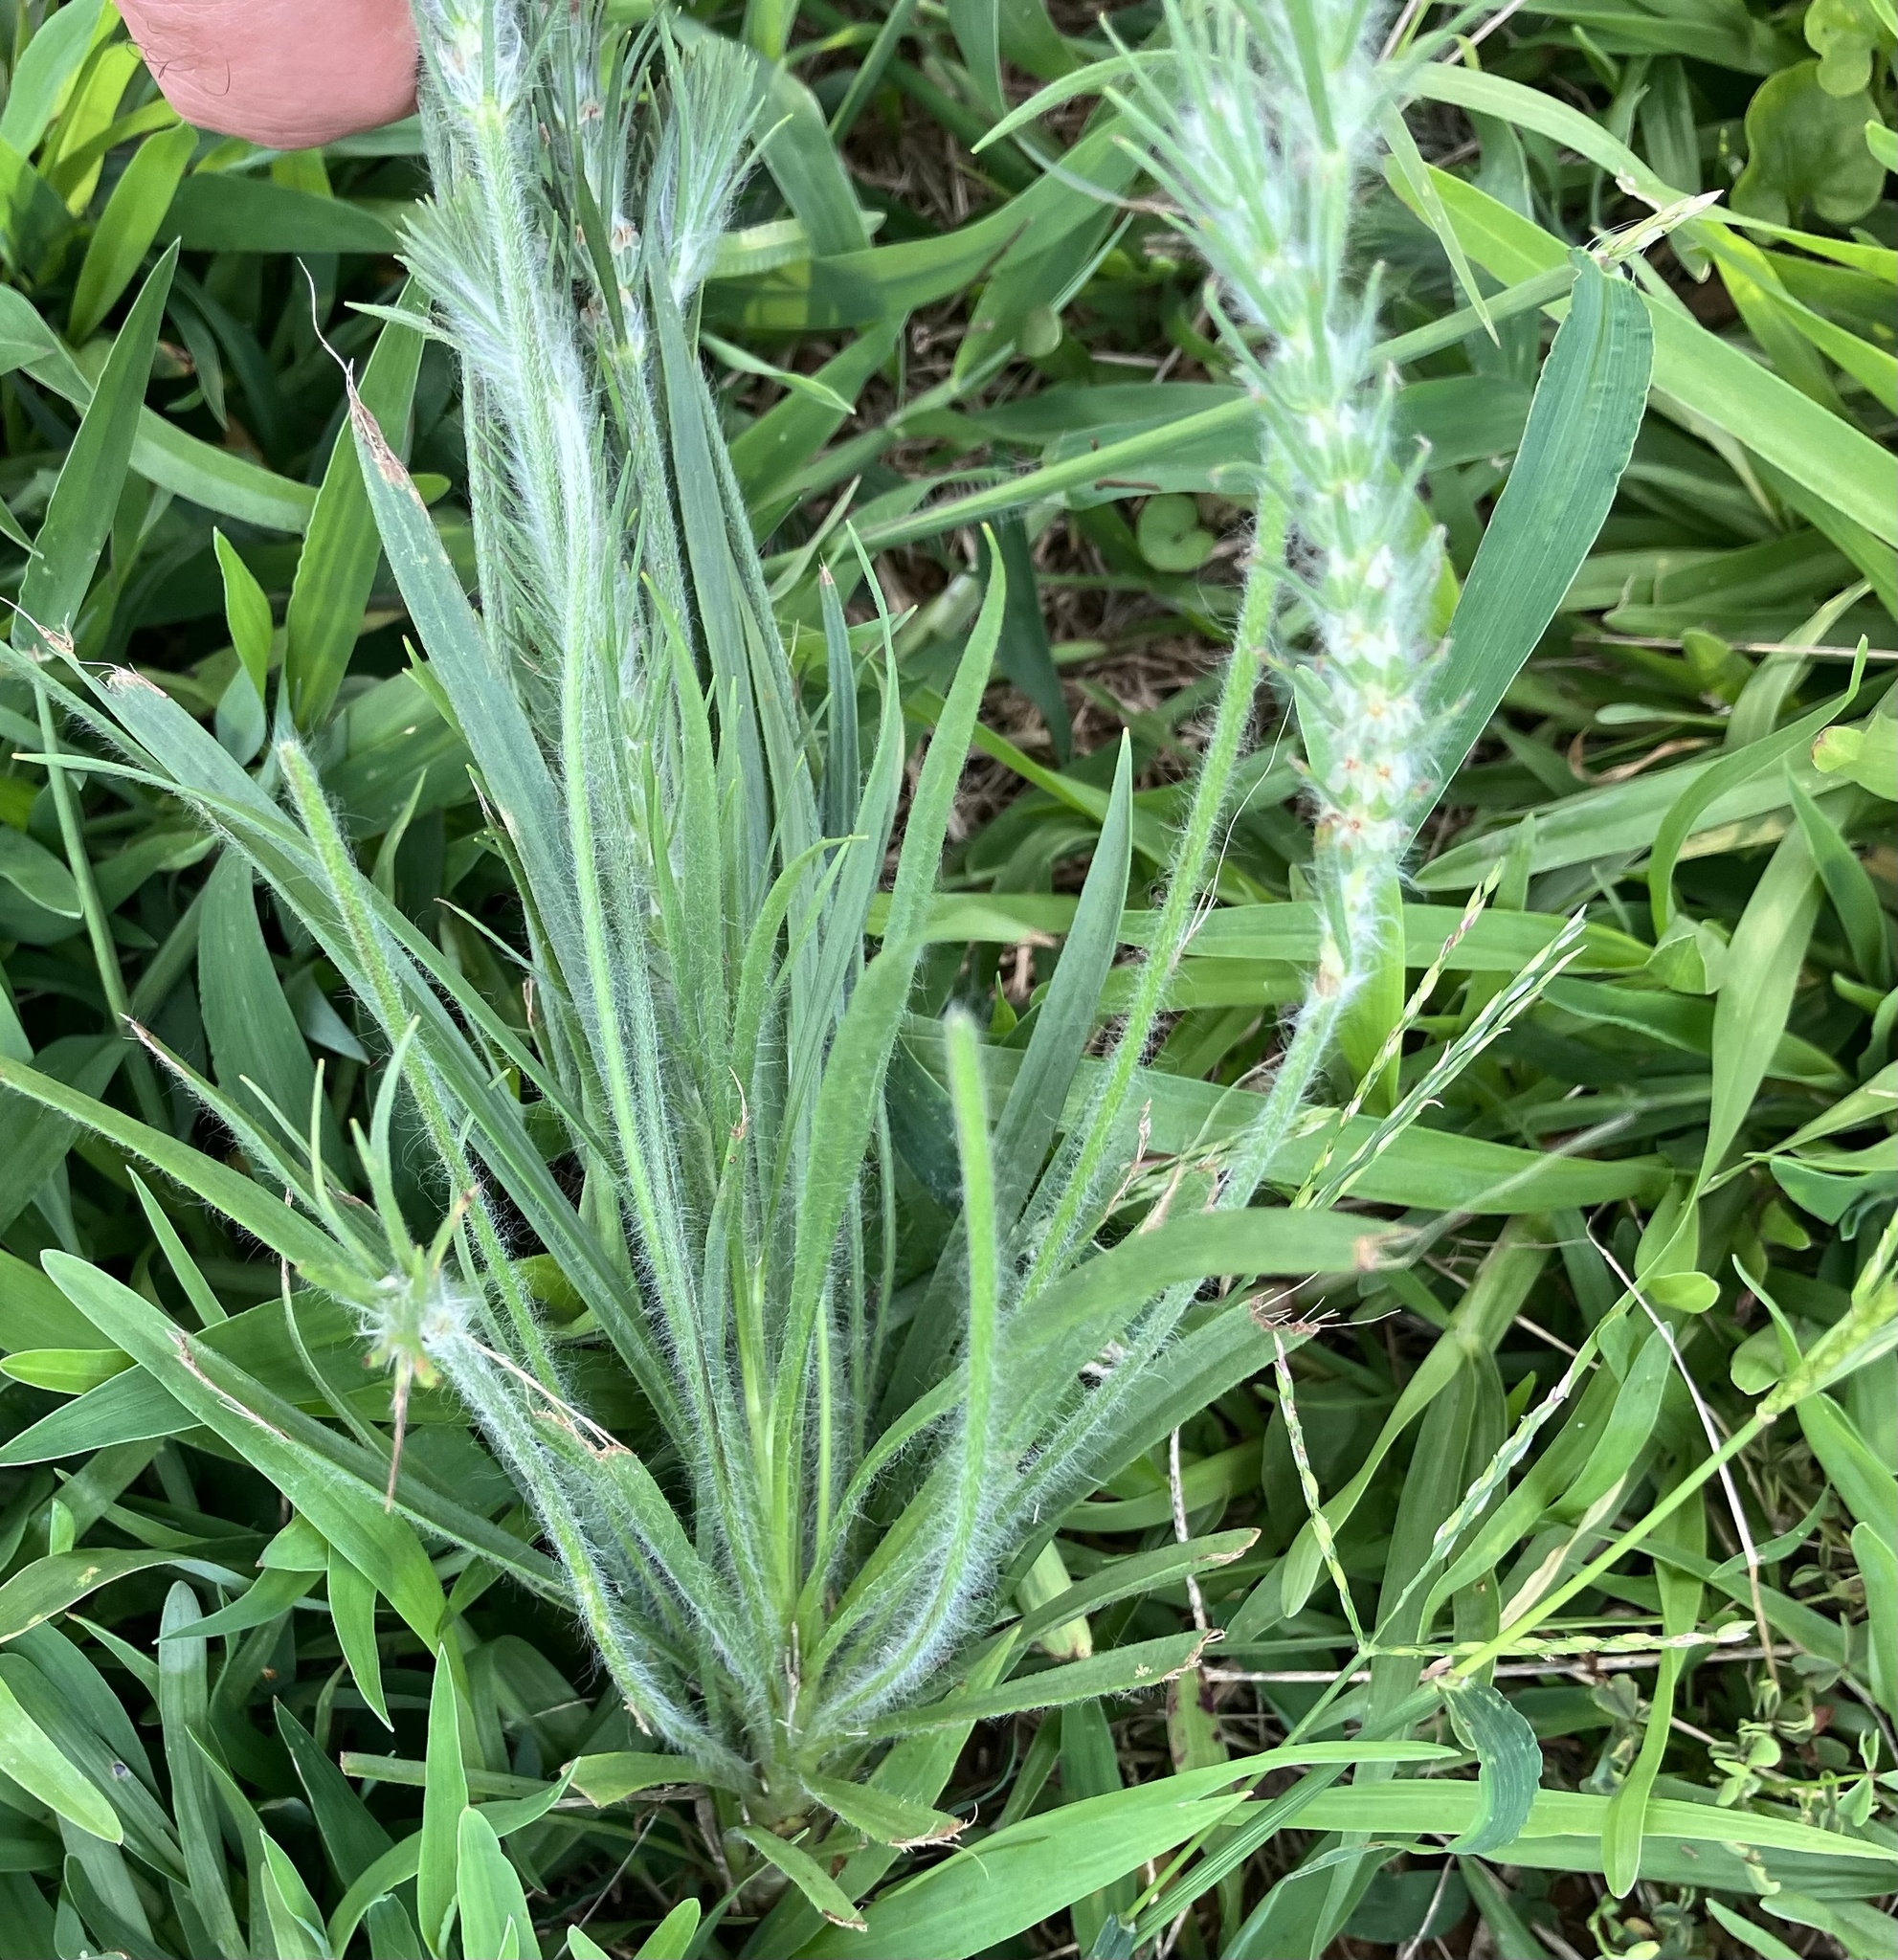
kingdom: Plantae
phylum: Tracheophyta
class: Magnoliopsida
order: Lamiales
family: Plantaginaceae
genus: Plantago
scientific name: Plantago aristata
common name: Bracted plantain
